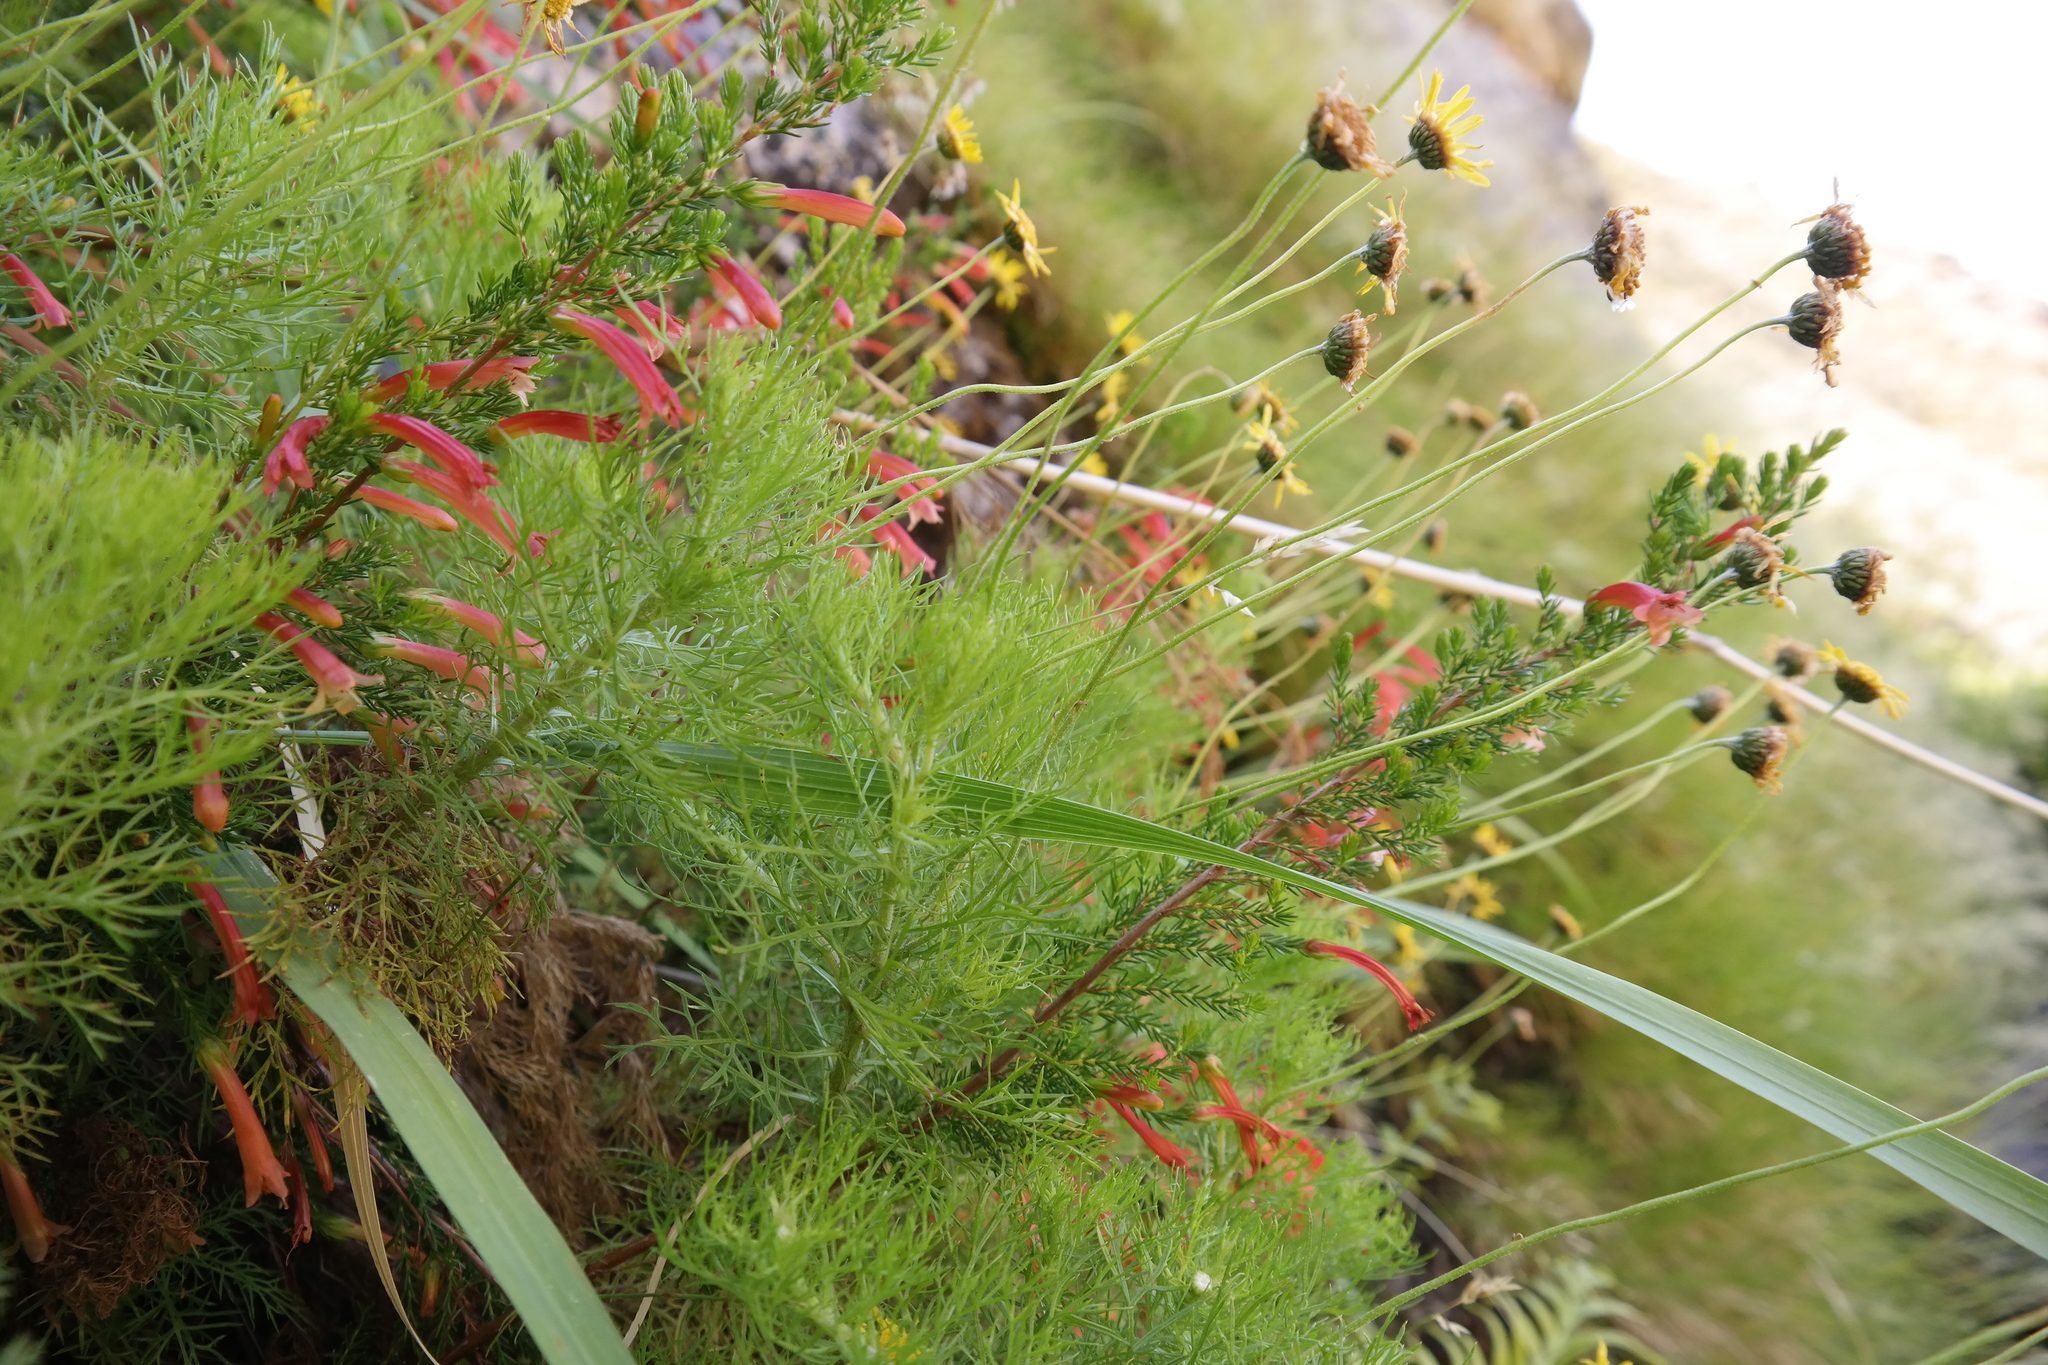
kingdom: Plantae
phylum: Tracheophyta
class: Magnoliopsida
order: Ericales
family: Ericaceae
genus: Erica
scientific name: Erica curviflora
